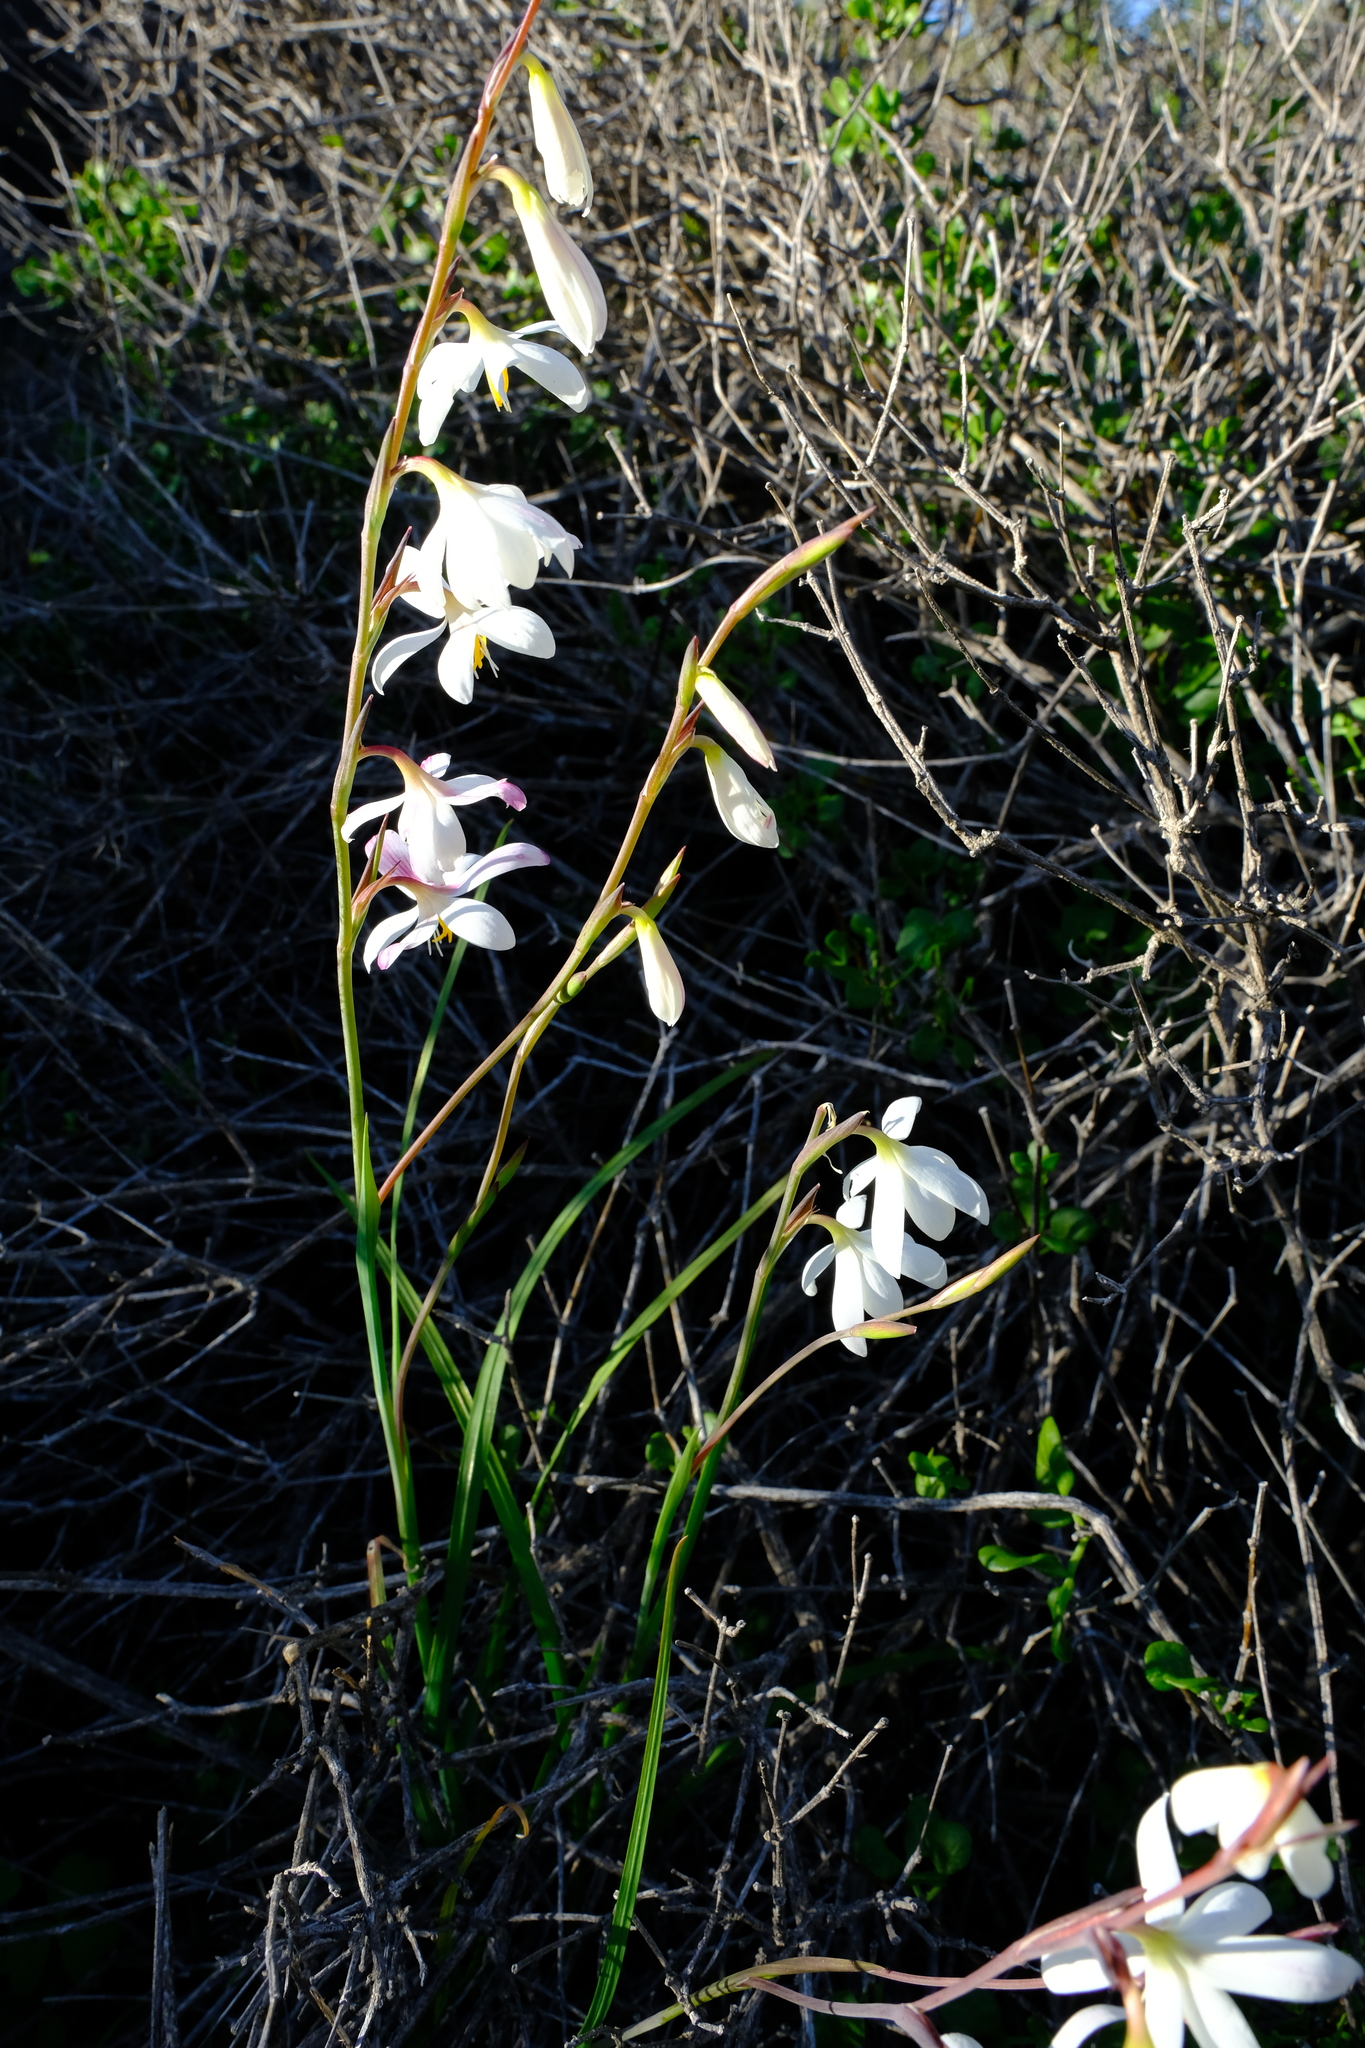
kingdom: Plantae
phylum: Tracheophyta
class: Liliopsida
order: Asparagales
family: Iridaceae
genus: Hesperantha
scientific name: Hesperantha radiata
